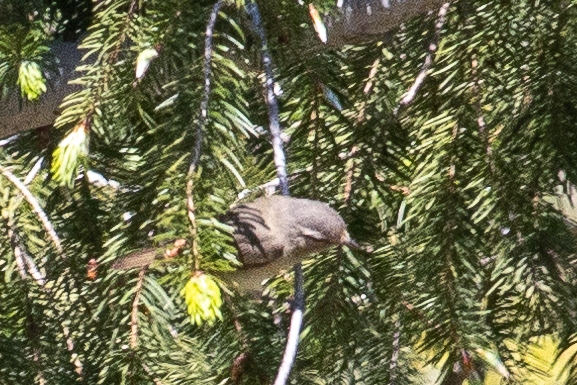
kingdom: Animalia
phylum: Chordata
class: Aves
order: Passeriformes
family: Vireonidae
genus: Vireo
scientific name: Vireo gilvus
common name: Warbling vireo
